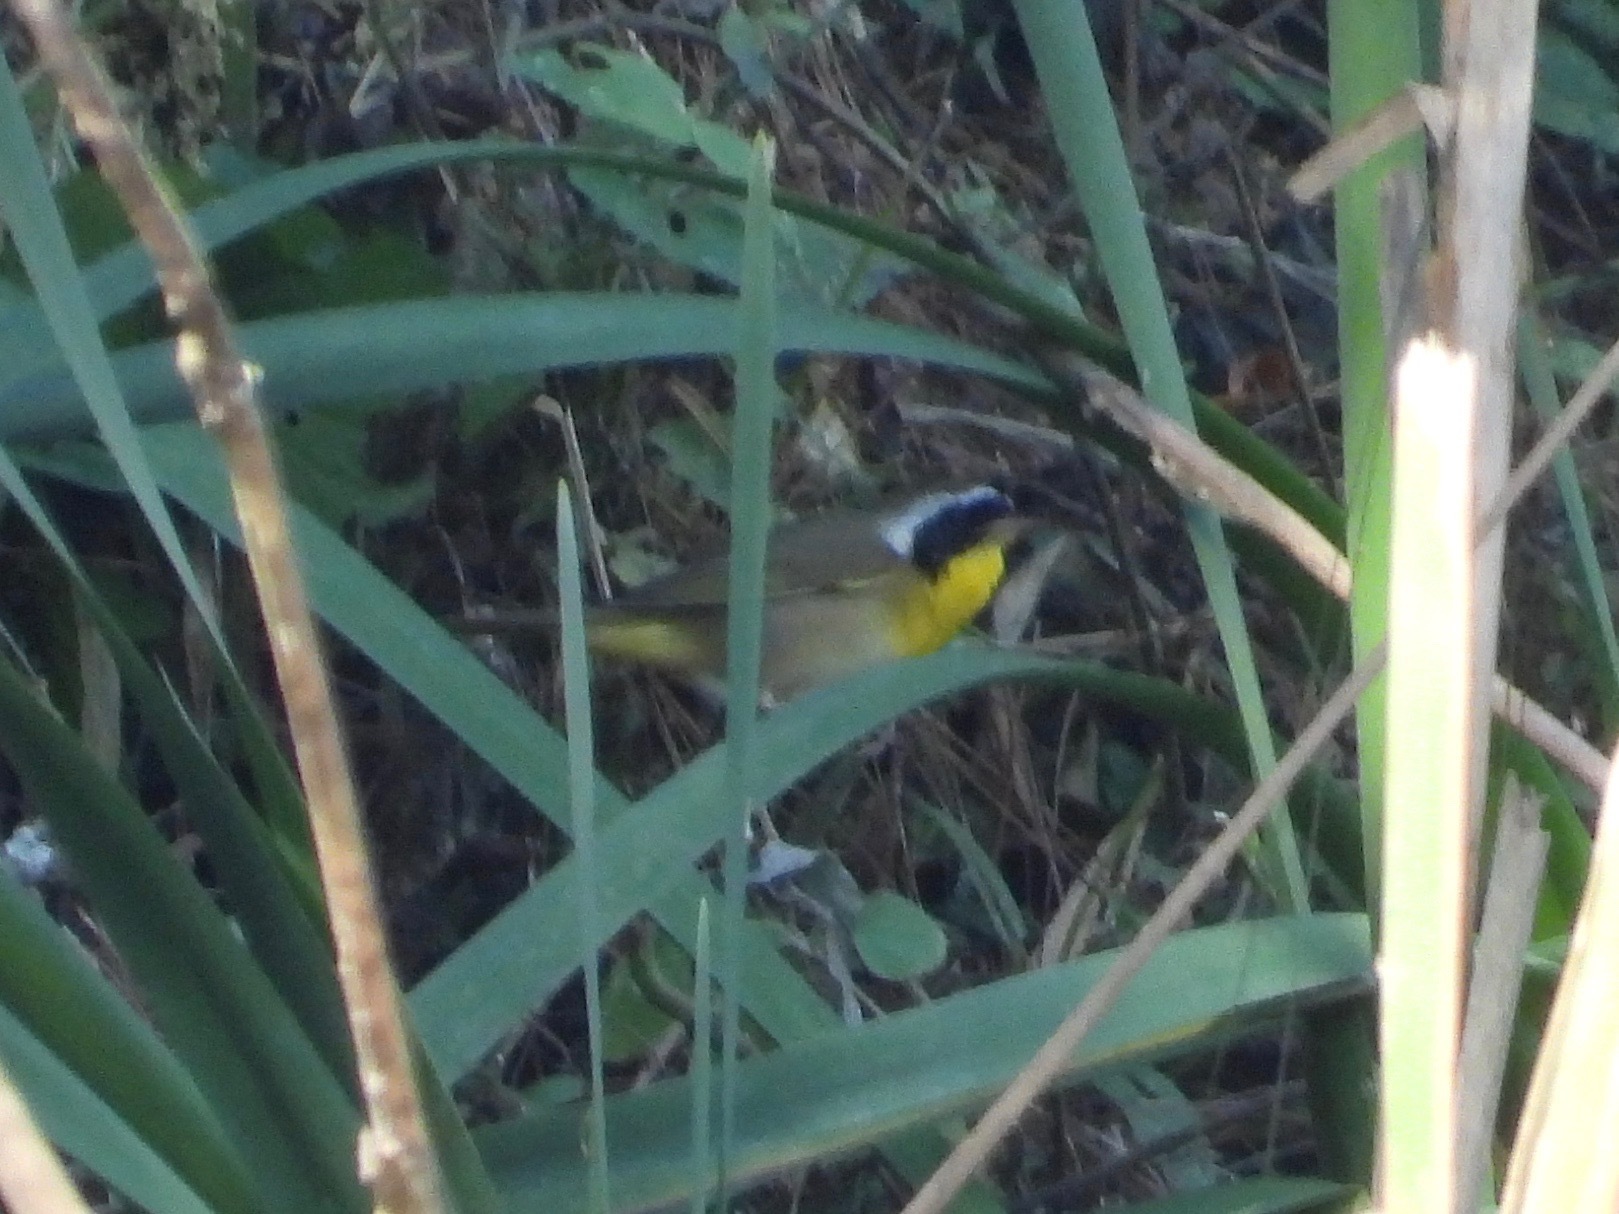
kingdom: Animalia
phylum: Chordata
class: Aves
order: Passeriformes
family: Parulidae
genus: Geothlypis
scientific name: Geothlypis trichas
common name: Common yellowthroat
